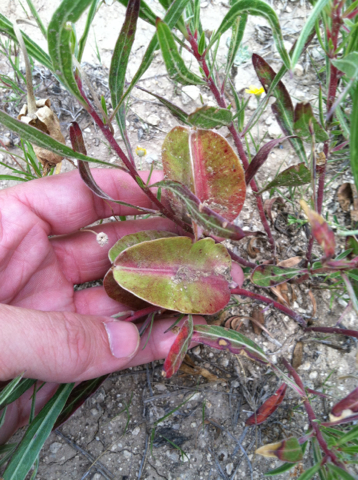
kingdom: Plantae
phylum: Tracheophyta
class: Magnoliopsida
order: Myrtales
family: Onagraceae
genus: Oenothera
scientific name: Oenothera macrocarpa
